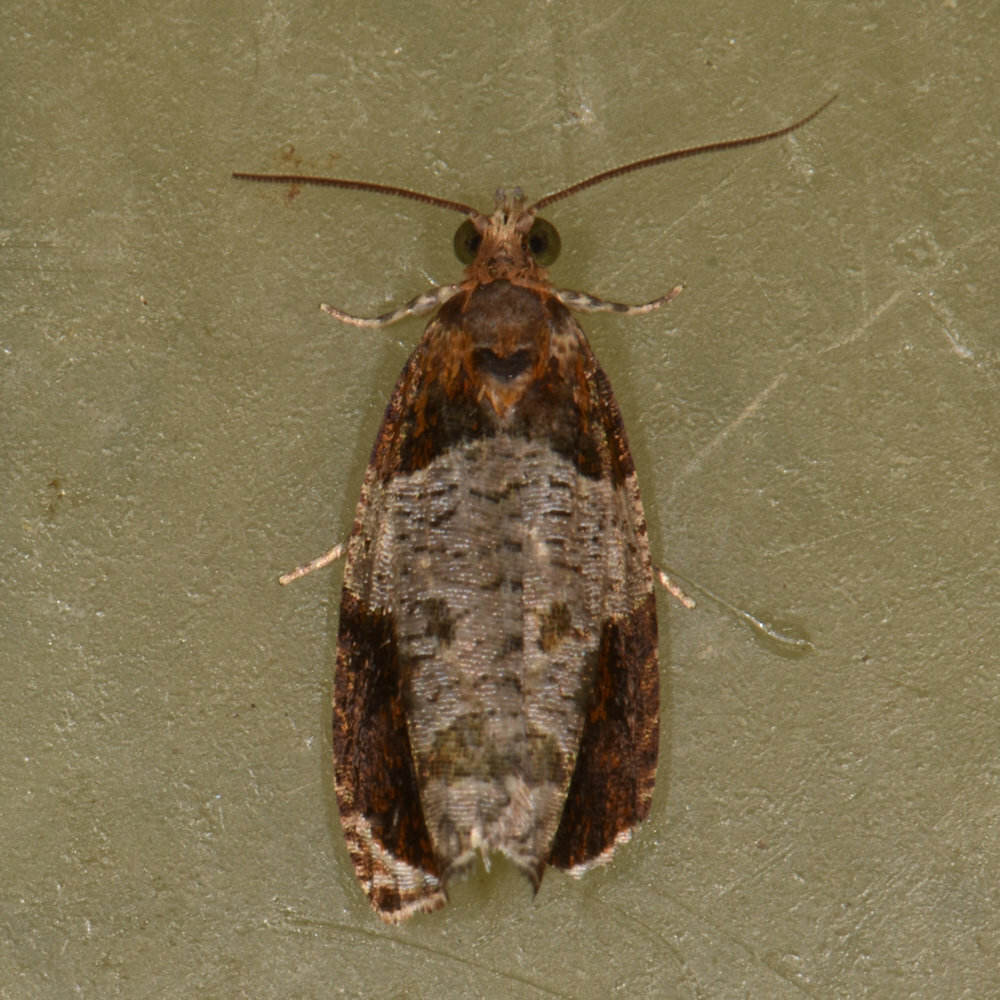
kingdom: Animalia
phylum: Arthropoda
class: Insecta
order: Lepidoptera
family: Tortricidae
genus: Olethreutes
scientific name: Olethreutes ferriferana
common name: Hydrangea leaftier moth
